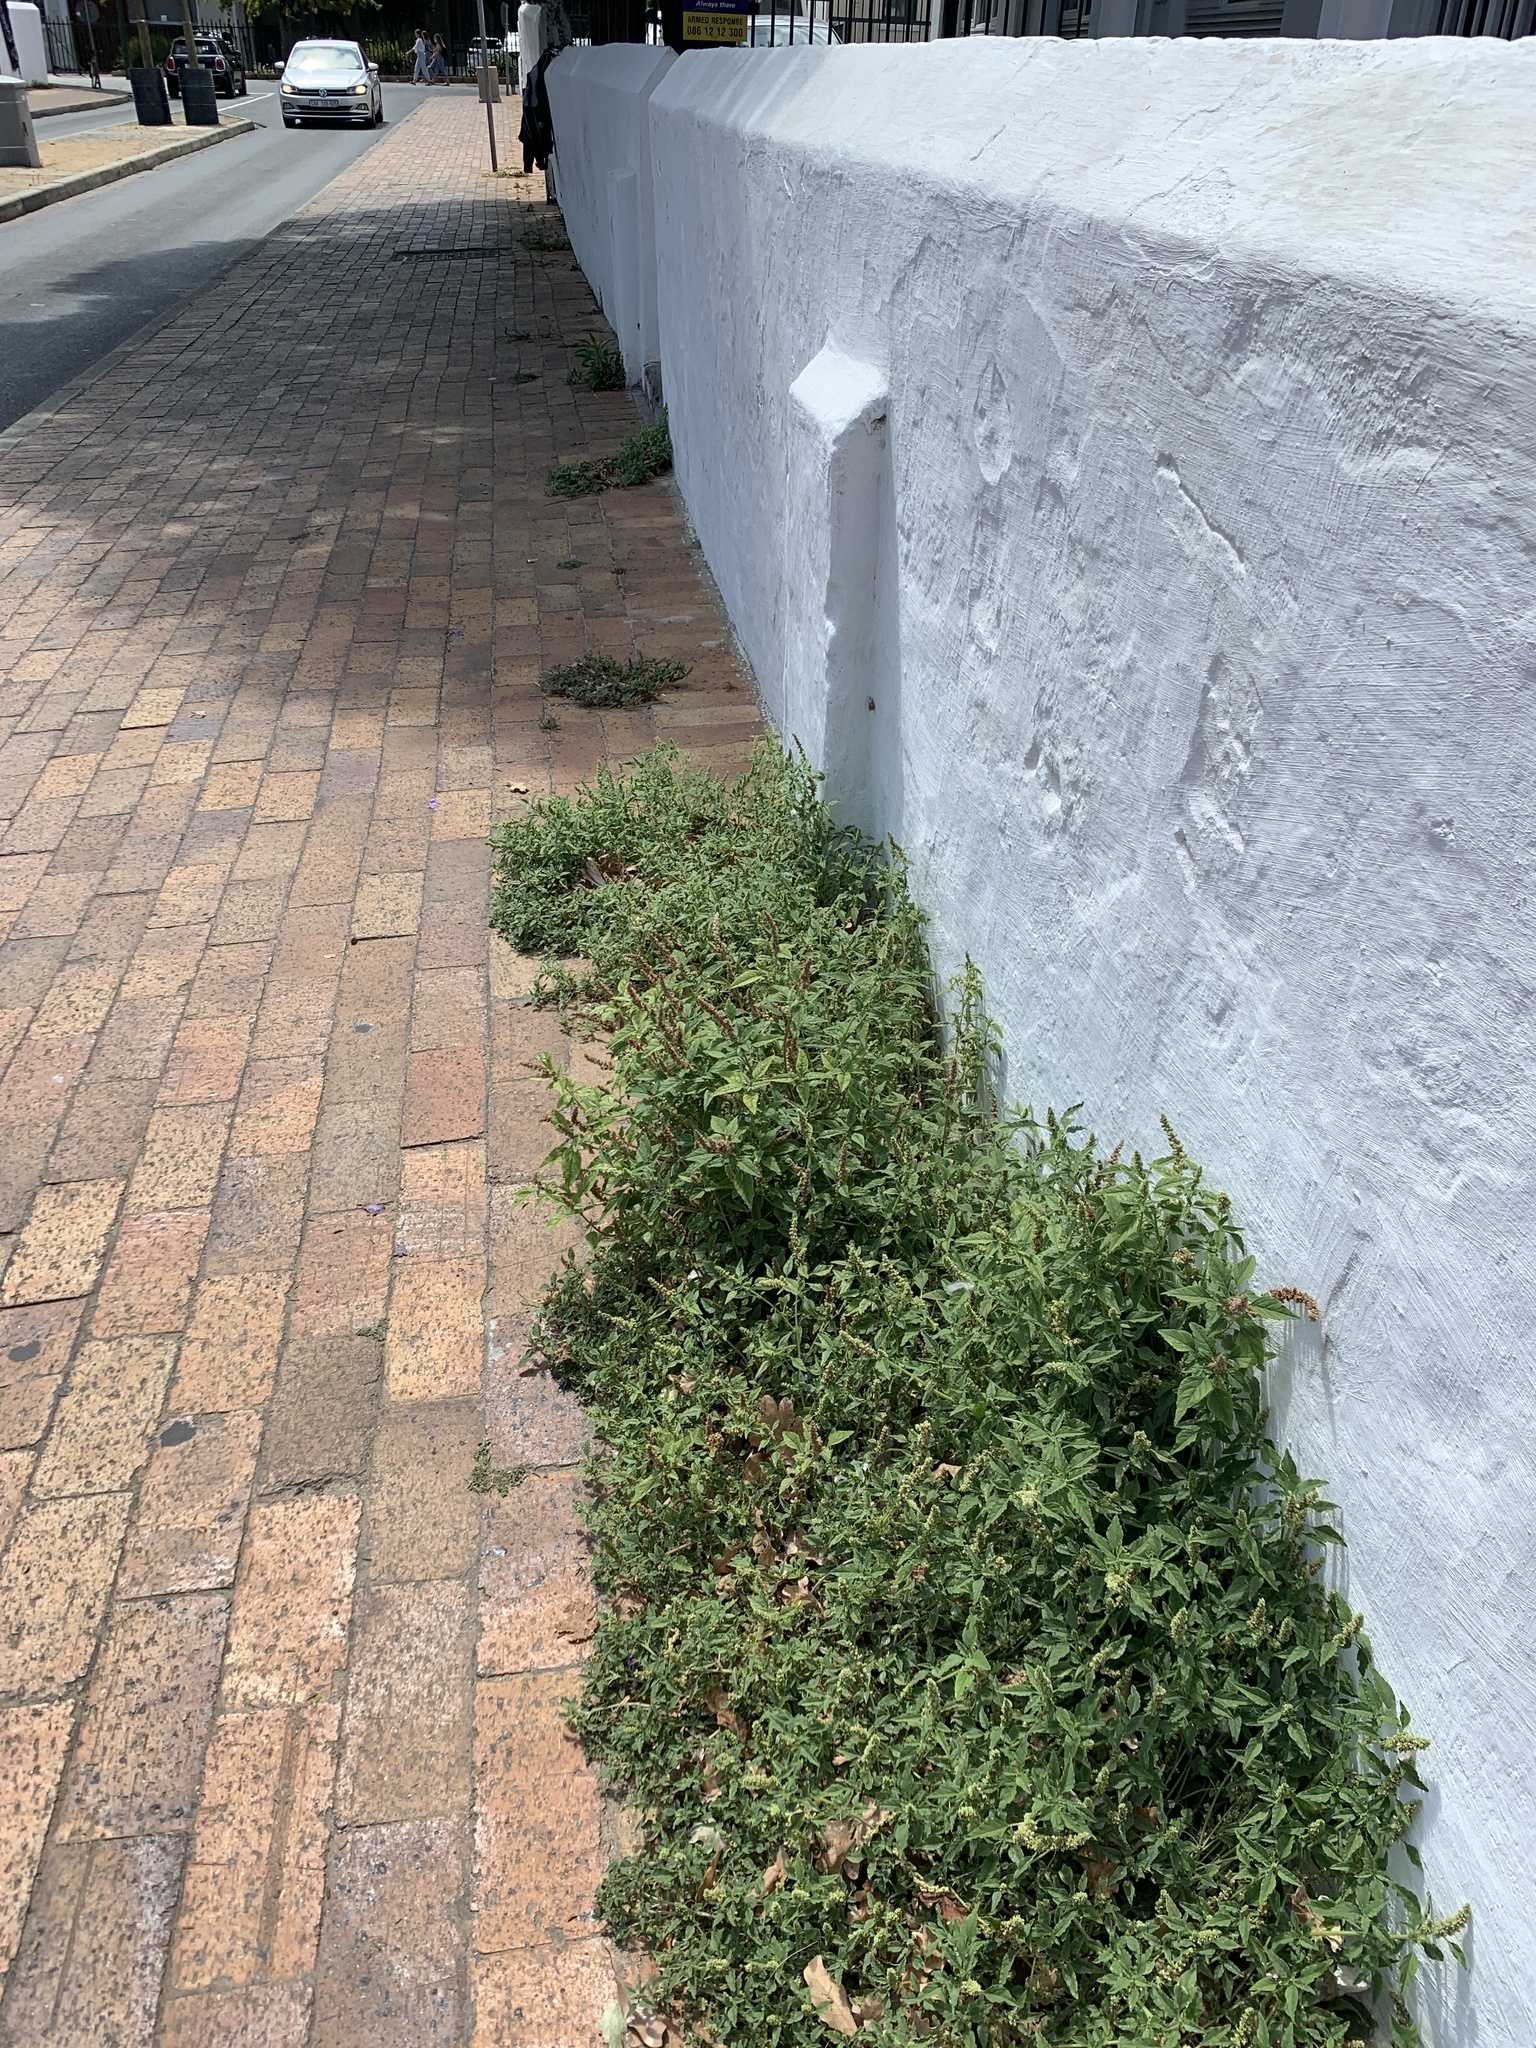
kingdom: Plantae
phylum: Tracheophyta
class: Magnoliopsida
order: Caryophyllales
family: Amaranthaceae
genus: Amaranthus
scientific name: Amaranthus deflexus
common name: Perennial pigweed
